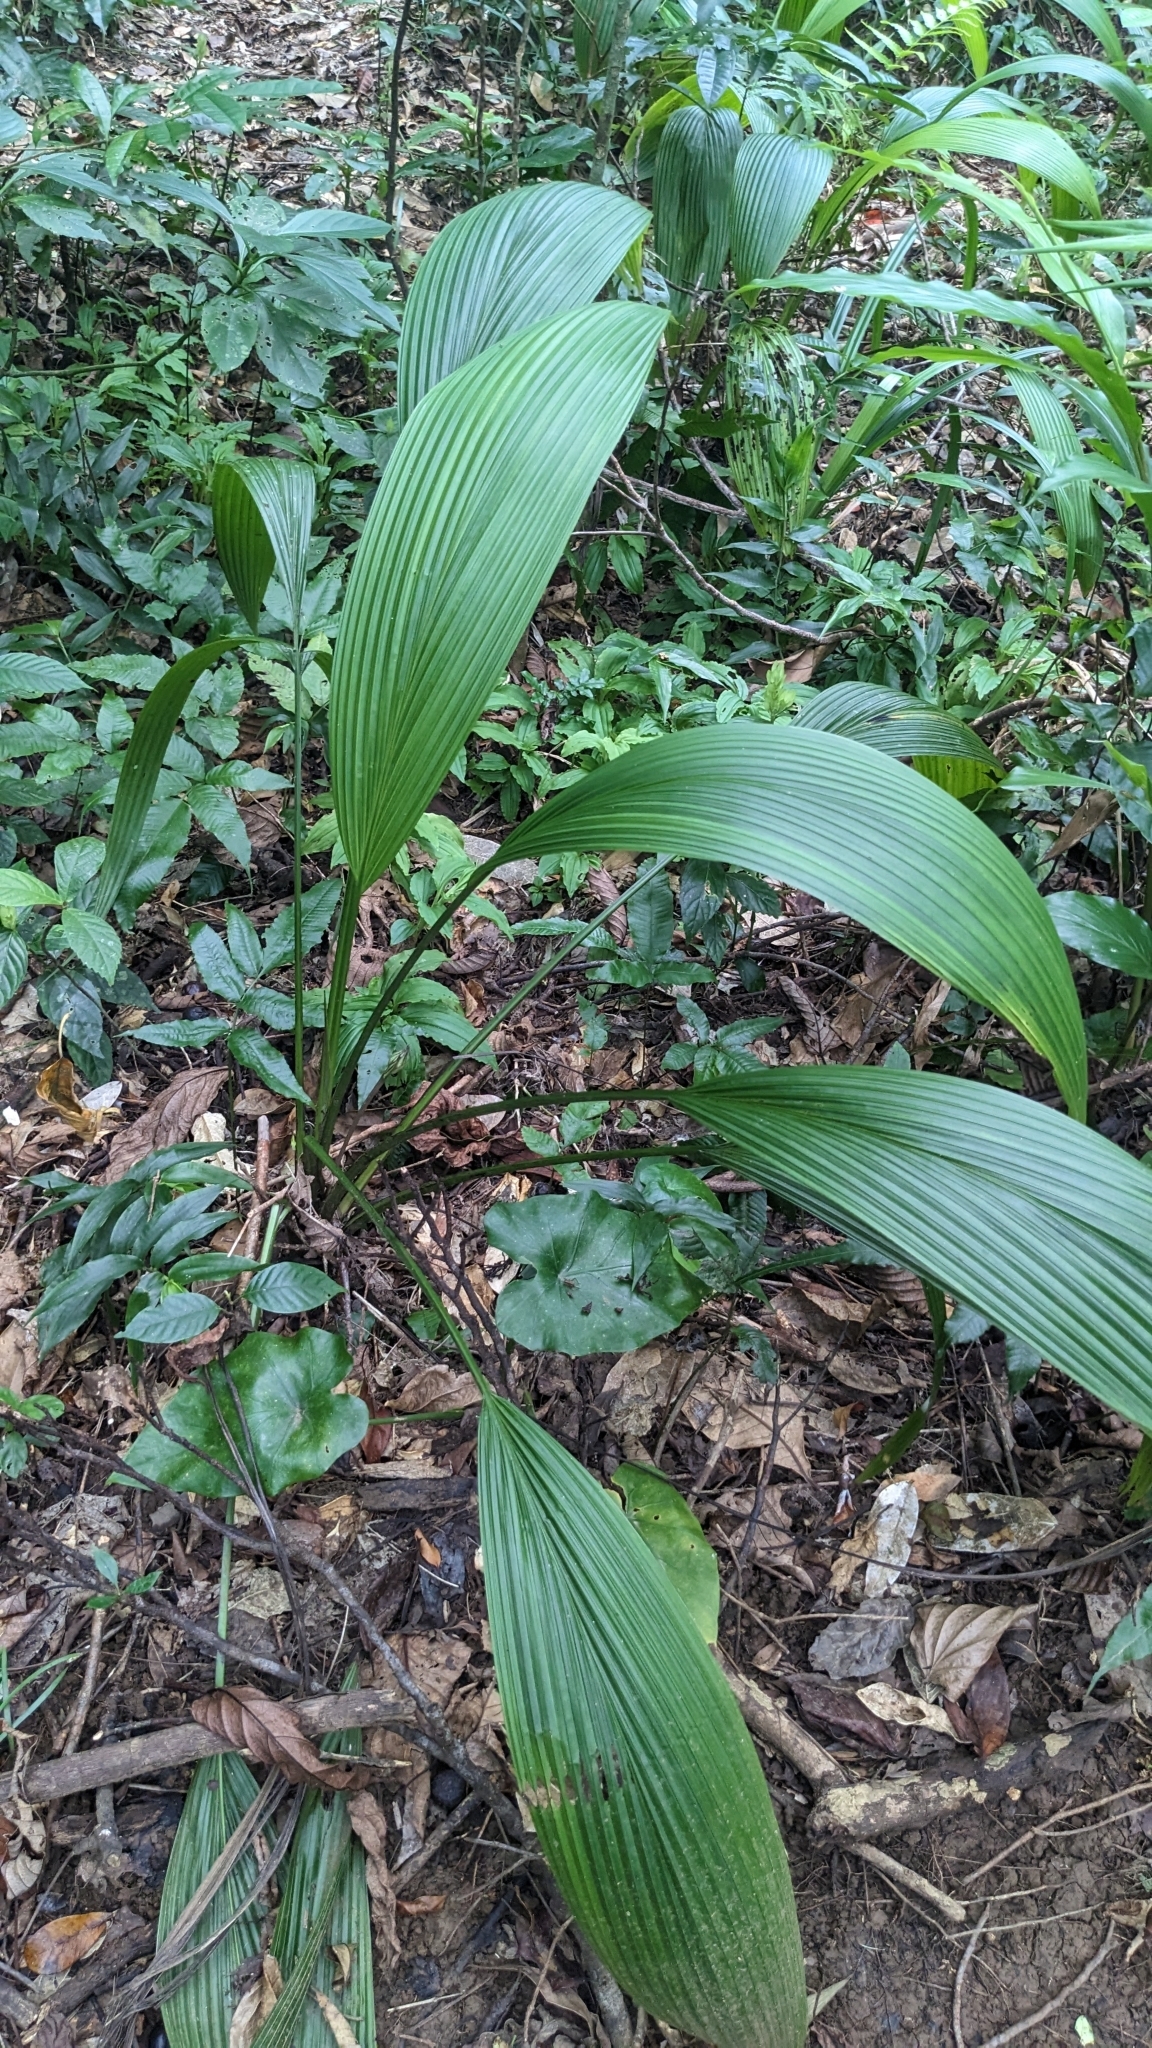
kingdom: Plantae
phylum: Tracheophyta
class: Liliopsida
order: Asparagales
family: Hypoxidaceae
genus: Curculigo
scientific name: Curculigo capitulata
